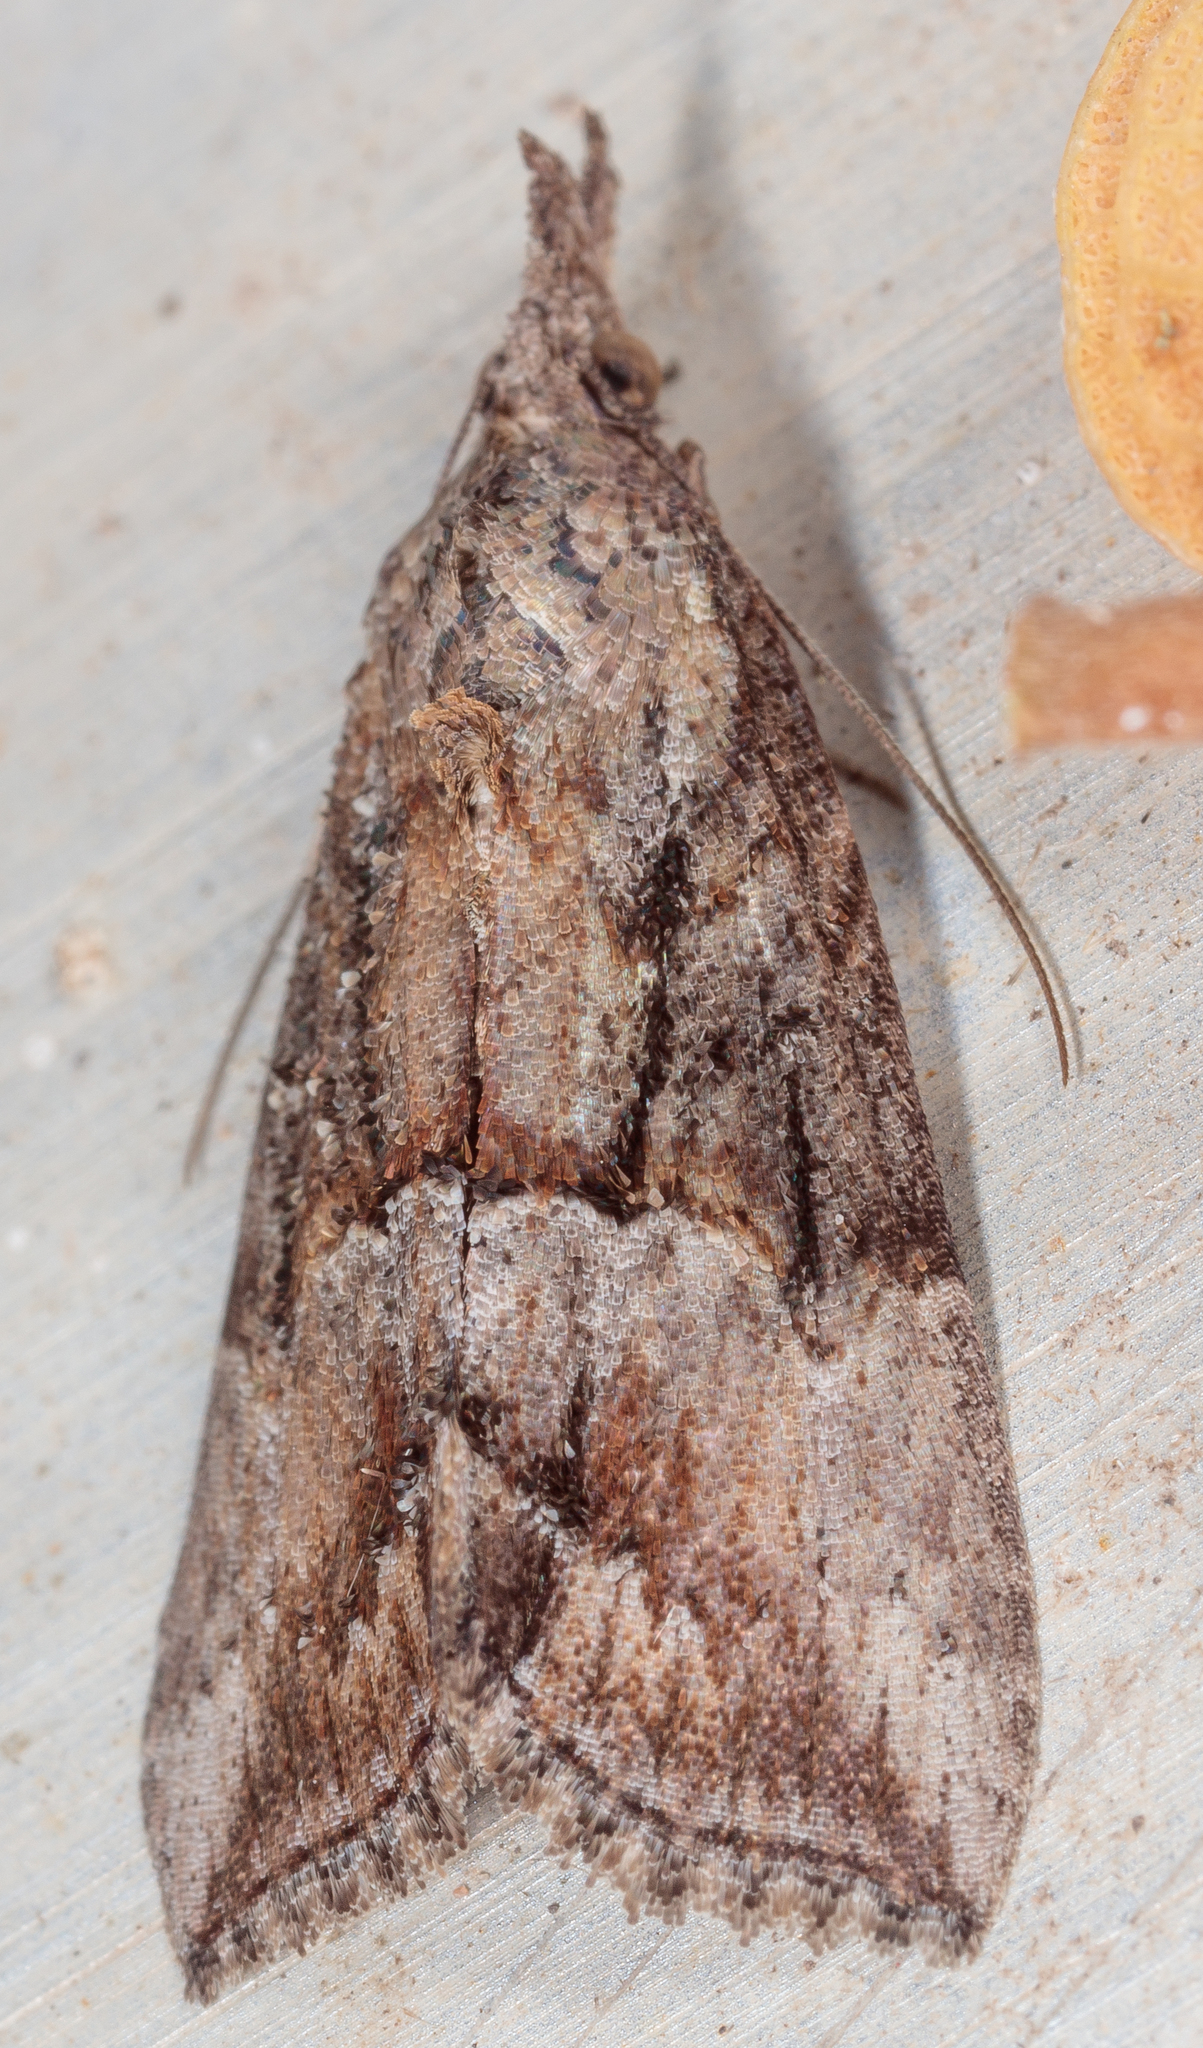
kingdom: Animalia
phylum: Arthropoda
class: Insecta
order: Lepidoptera
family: Erebidae
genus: Hypena
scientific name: Hypena scabra
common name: Green cloverworm
